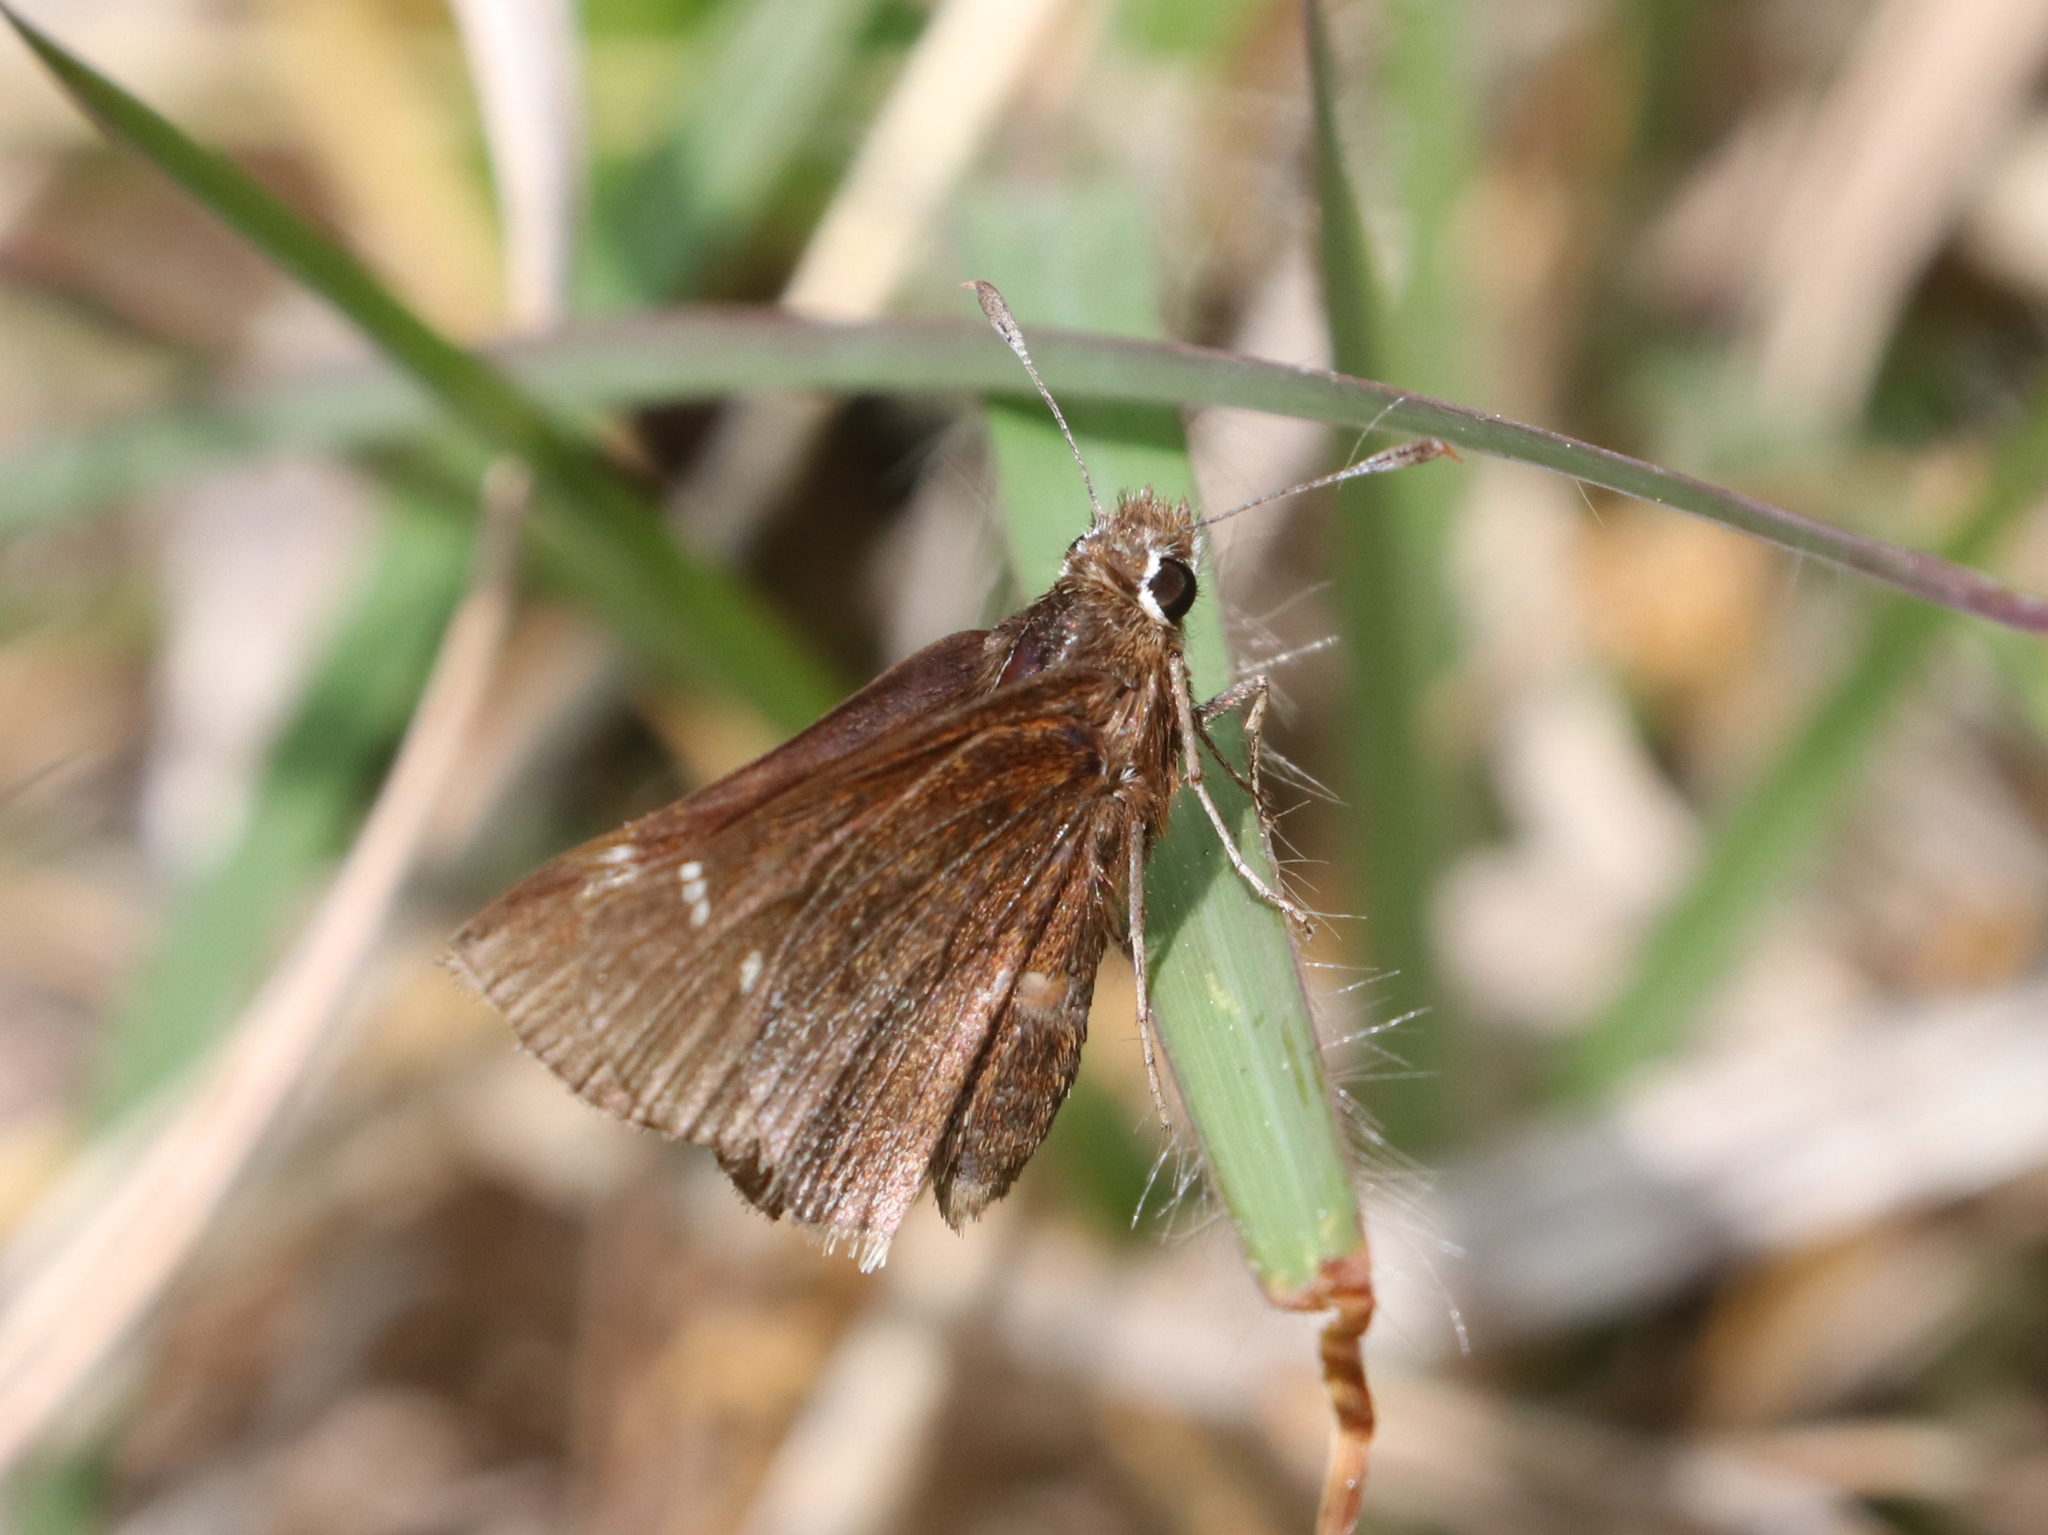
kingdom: Animalia
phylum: Arthropoda
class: Insecta
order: Lepidoptera
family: Hesperiidae
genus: Atrytonopsis
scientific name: Atrytonopsis hianna
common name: Dusted skipper
